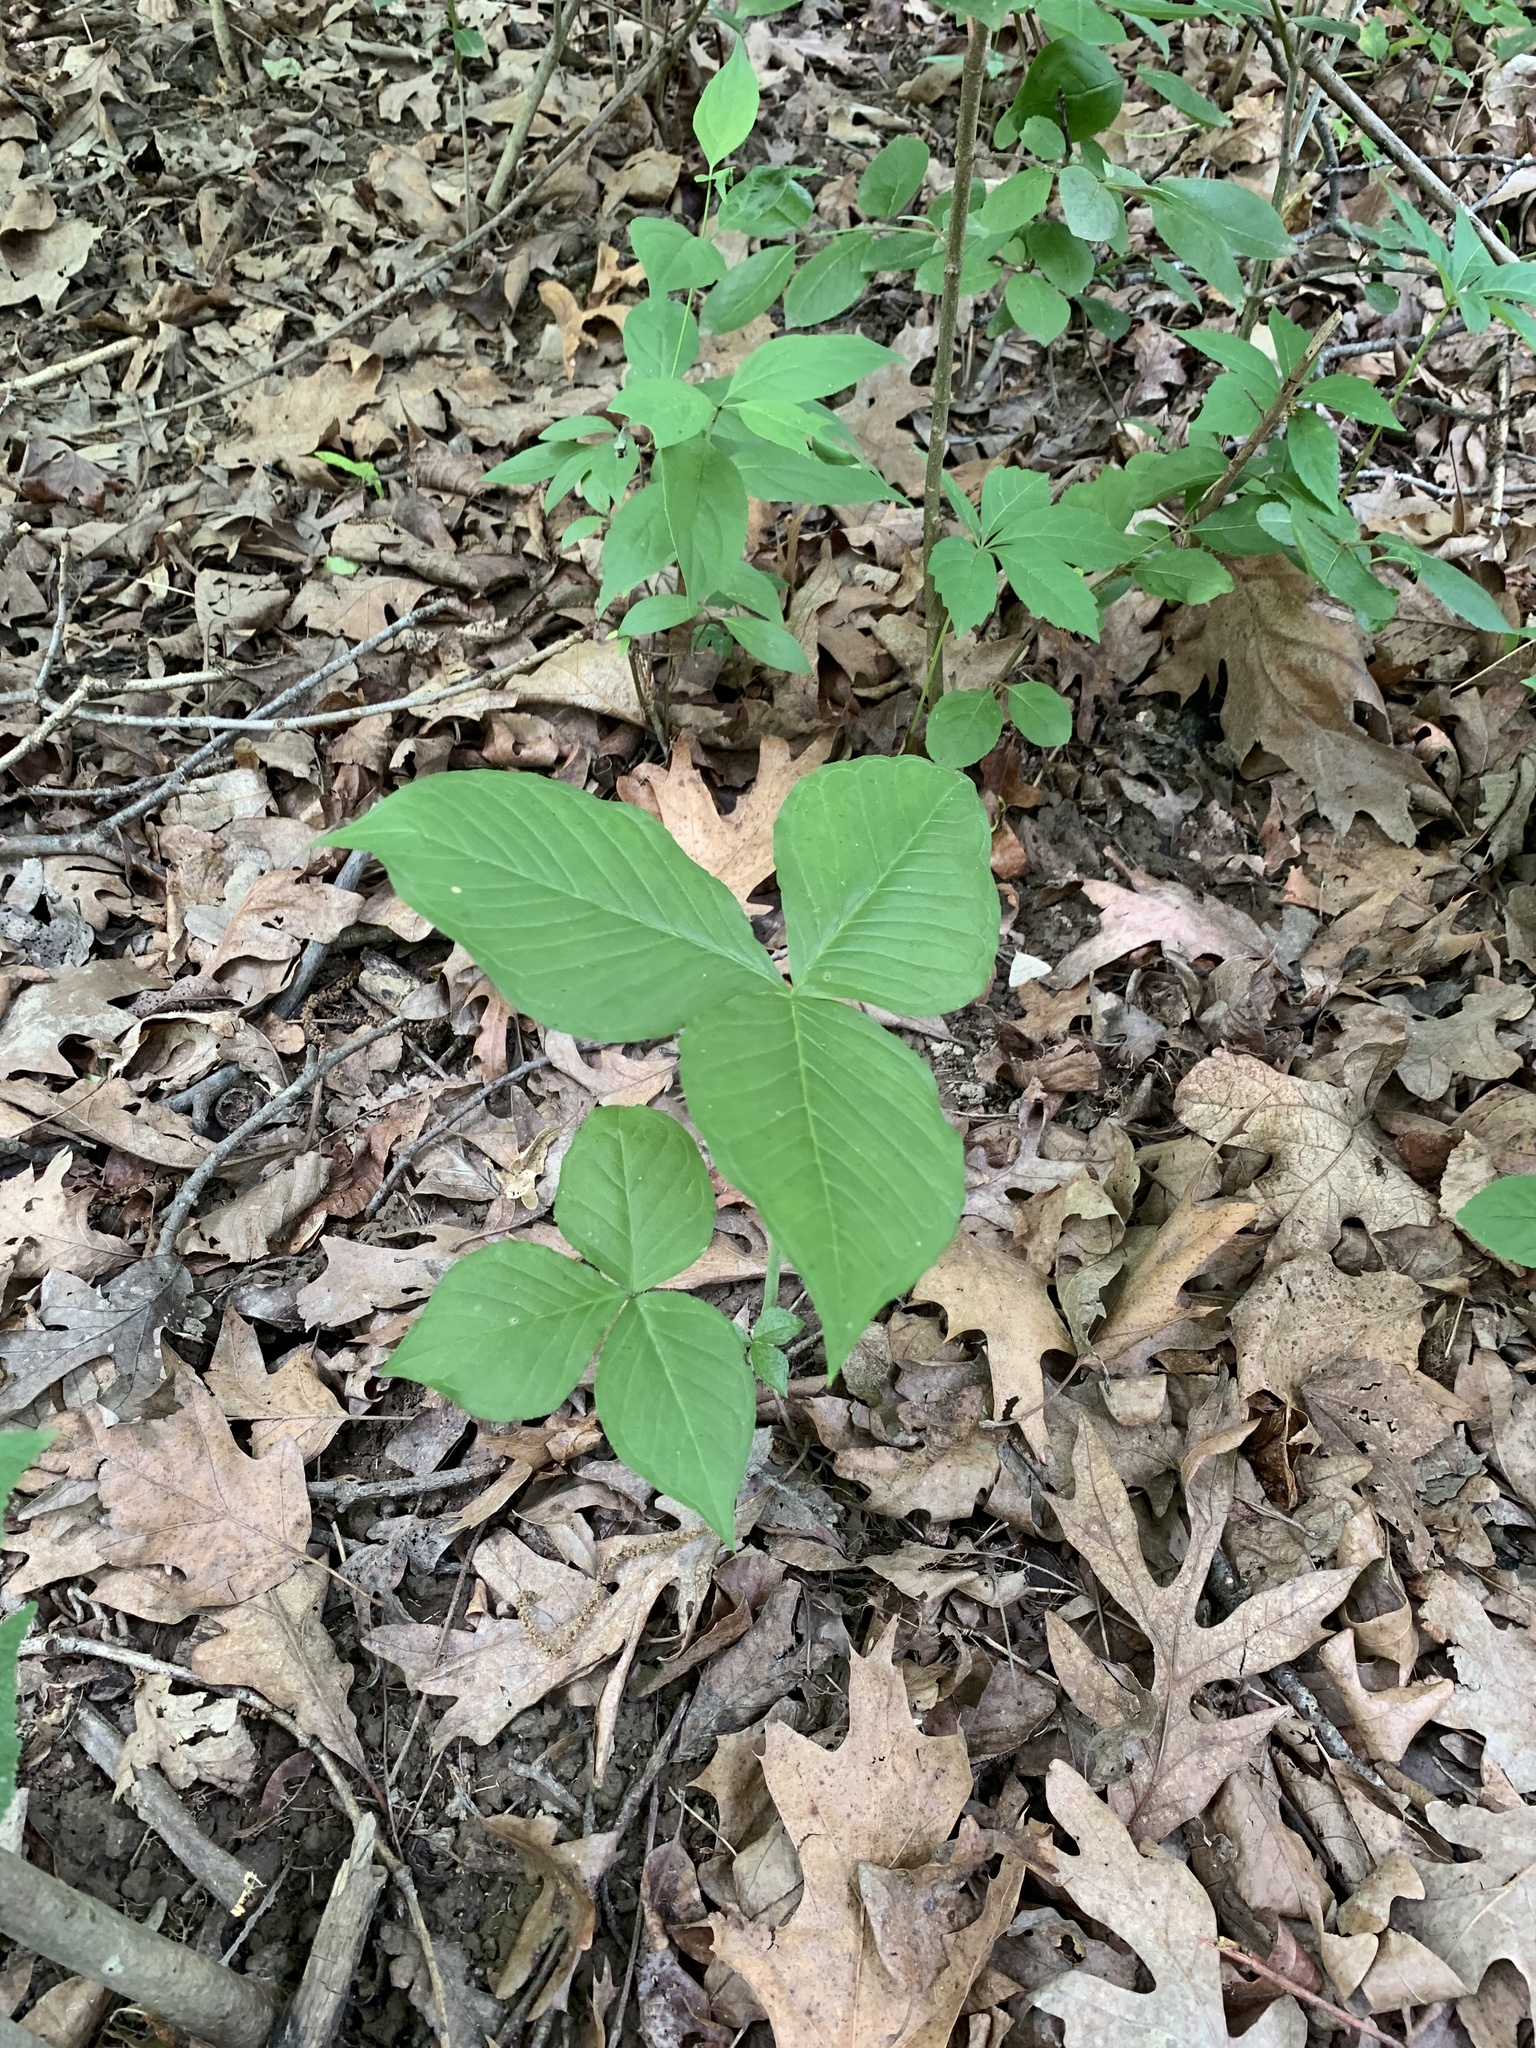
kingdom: Plantae
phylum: Tracheophyta
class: Liliopsida
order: Alismatales
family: Araceae
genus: Arisaema
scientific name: Arisaema triphyllum
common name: Jack-in-the-pulpit
